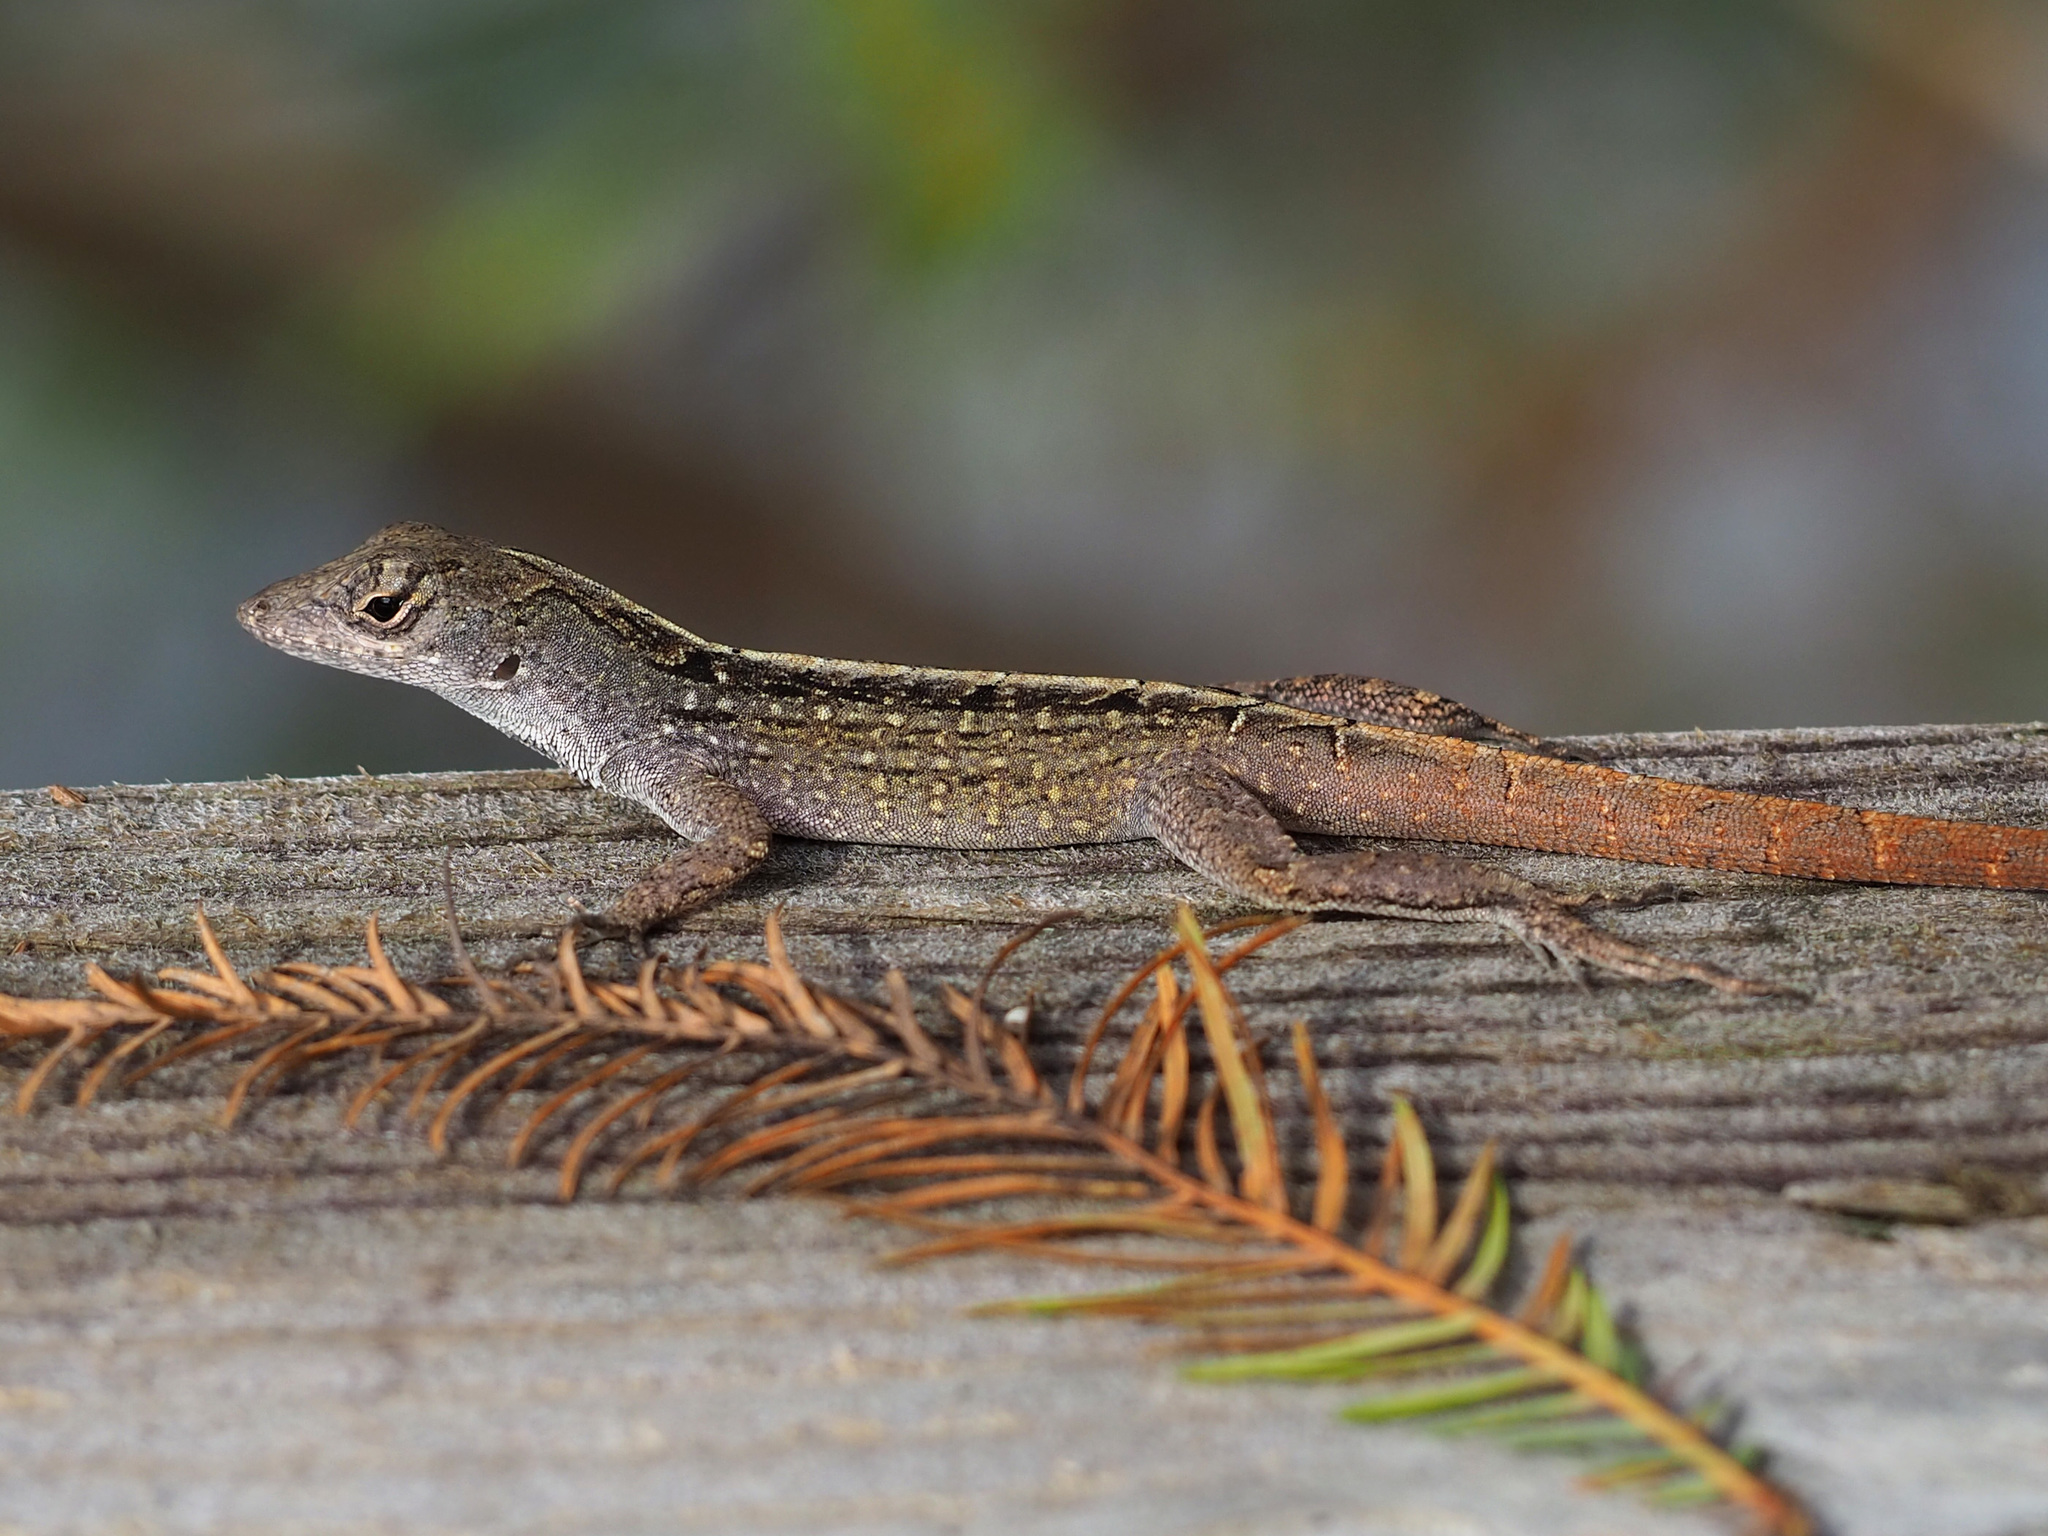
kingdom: Animalia
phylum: Chordata
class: Squamata
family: Dactyloidae
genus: Anolis
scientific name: Anolis sagrei
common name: Brown anole
